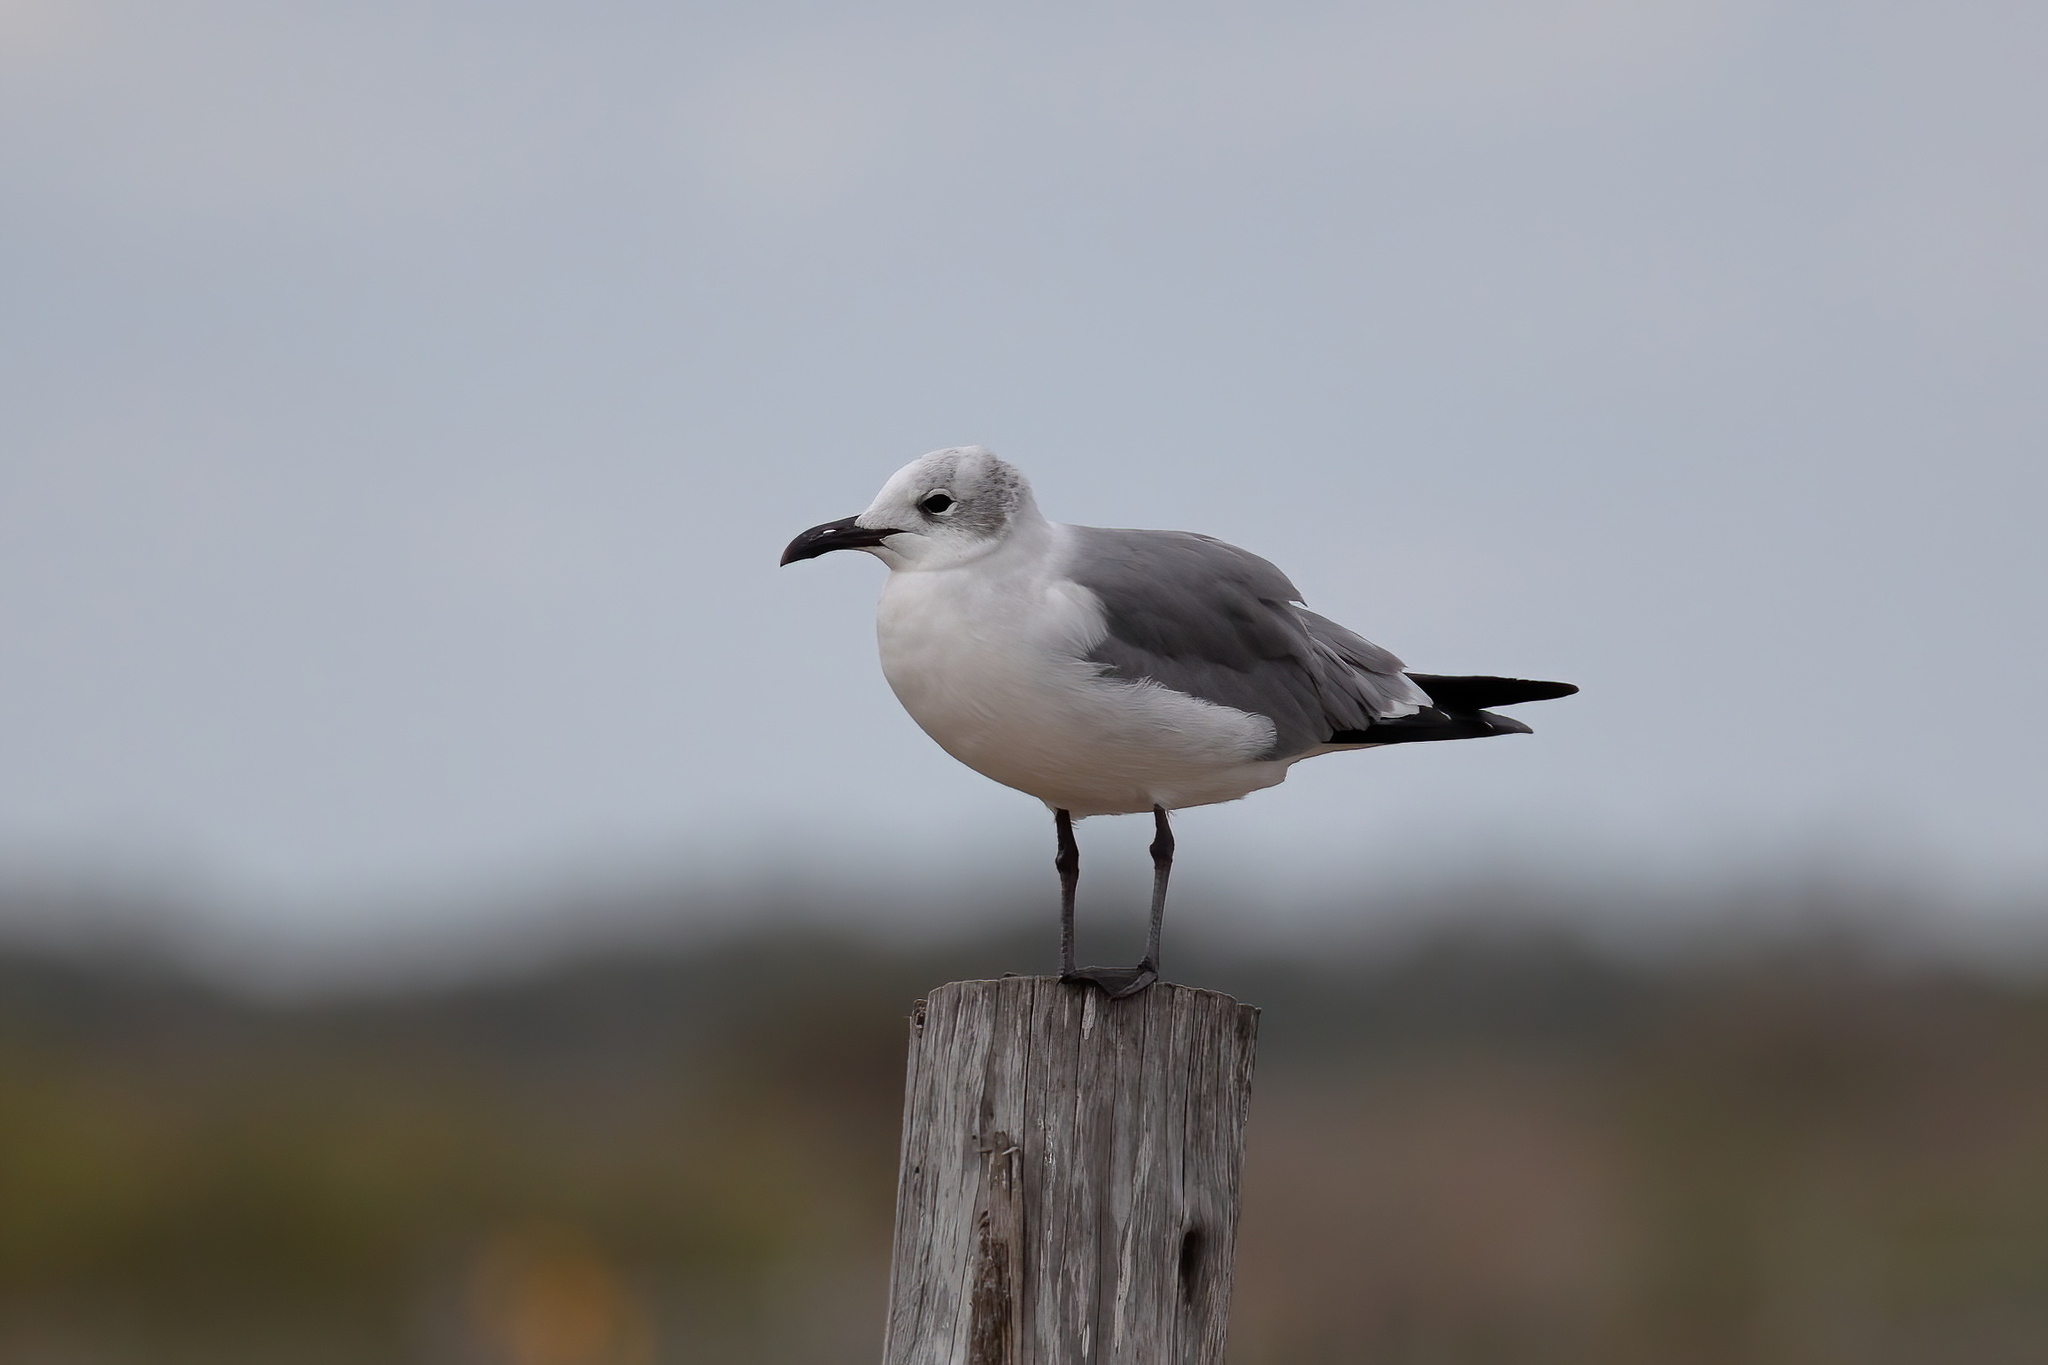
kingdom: Animalia
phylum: Chordata
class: Aves
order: Charadriiformes
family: Laridae
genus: Leucophaeus
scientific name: Leucophaeus atricilla
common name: Laughing gull
